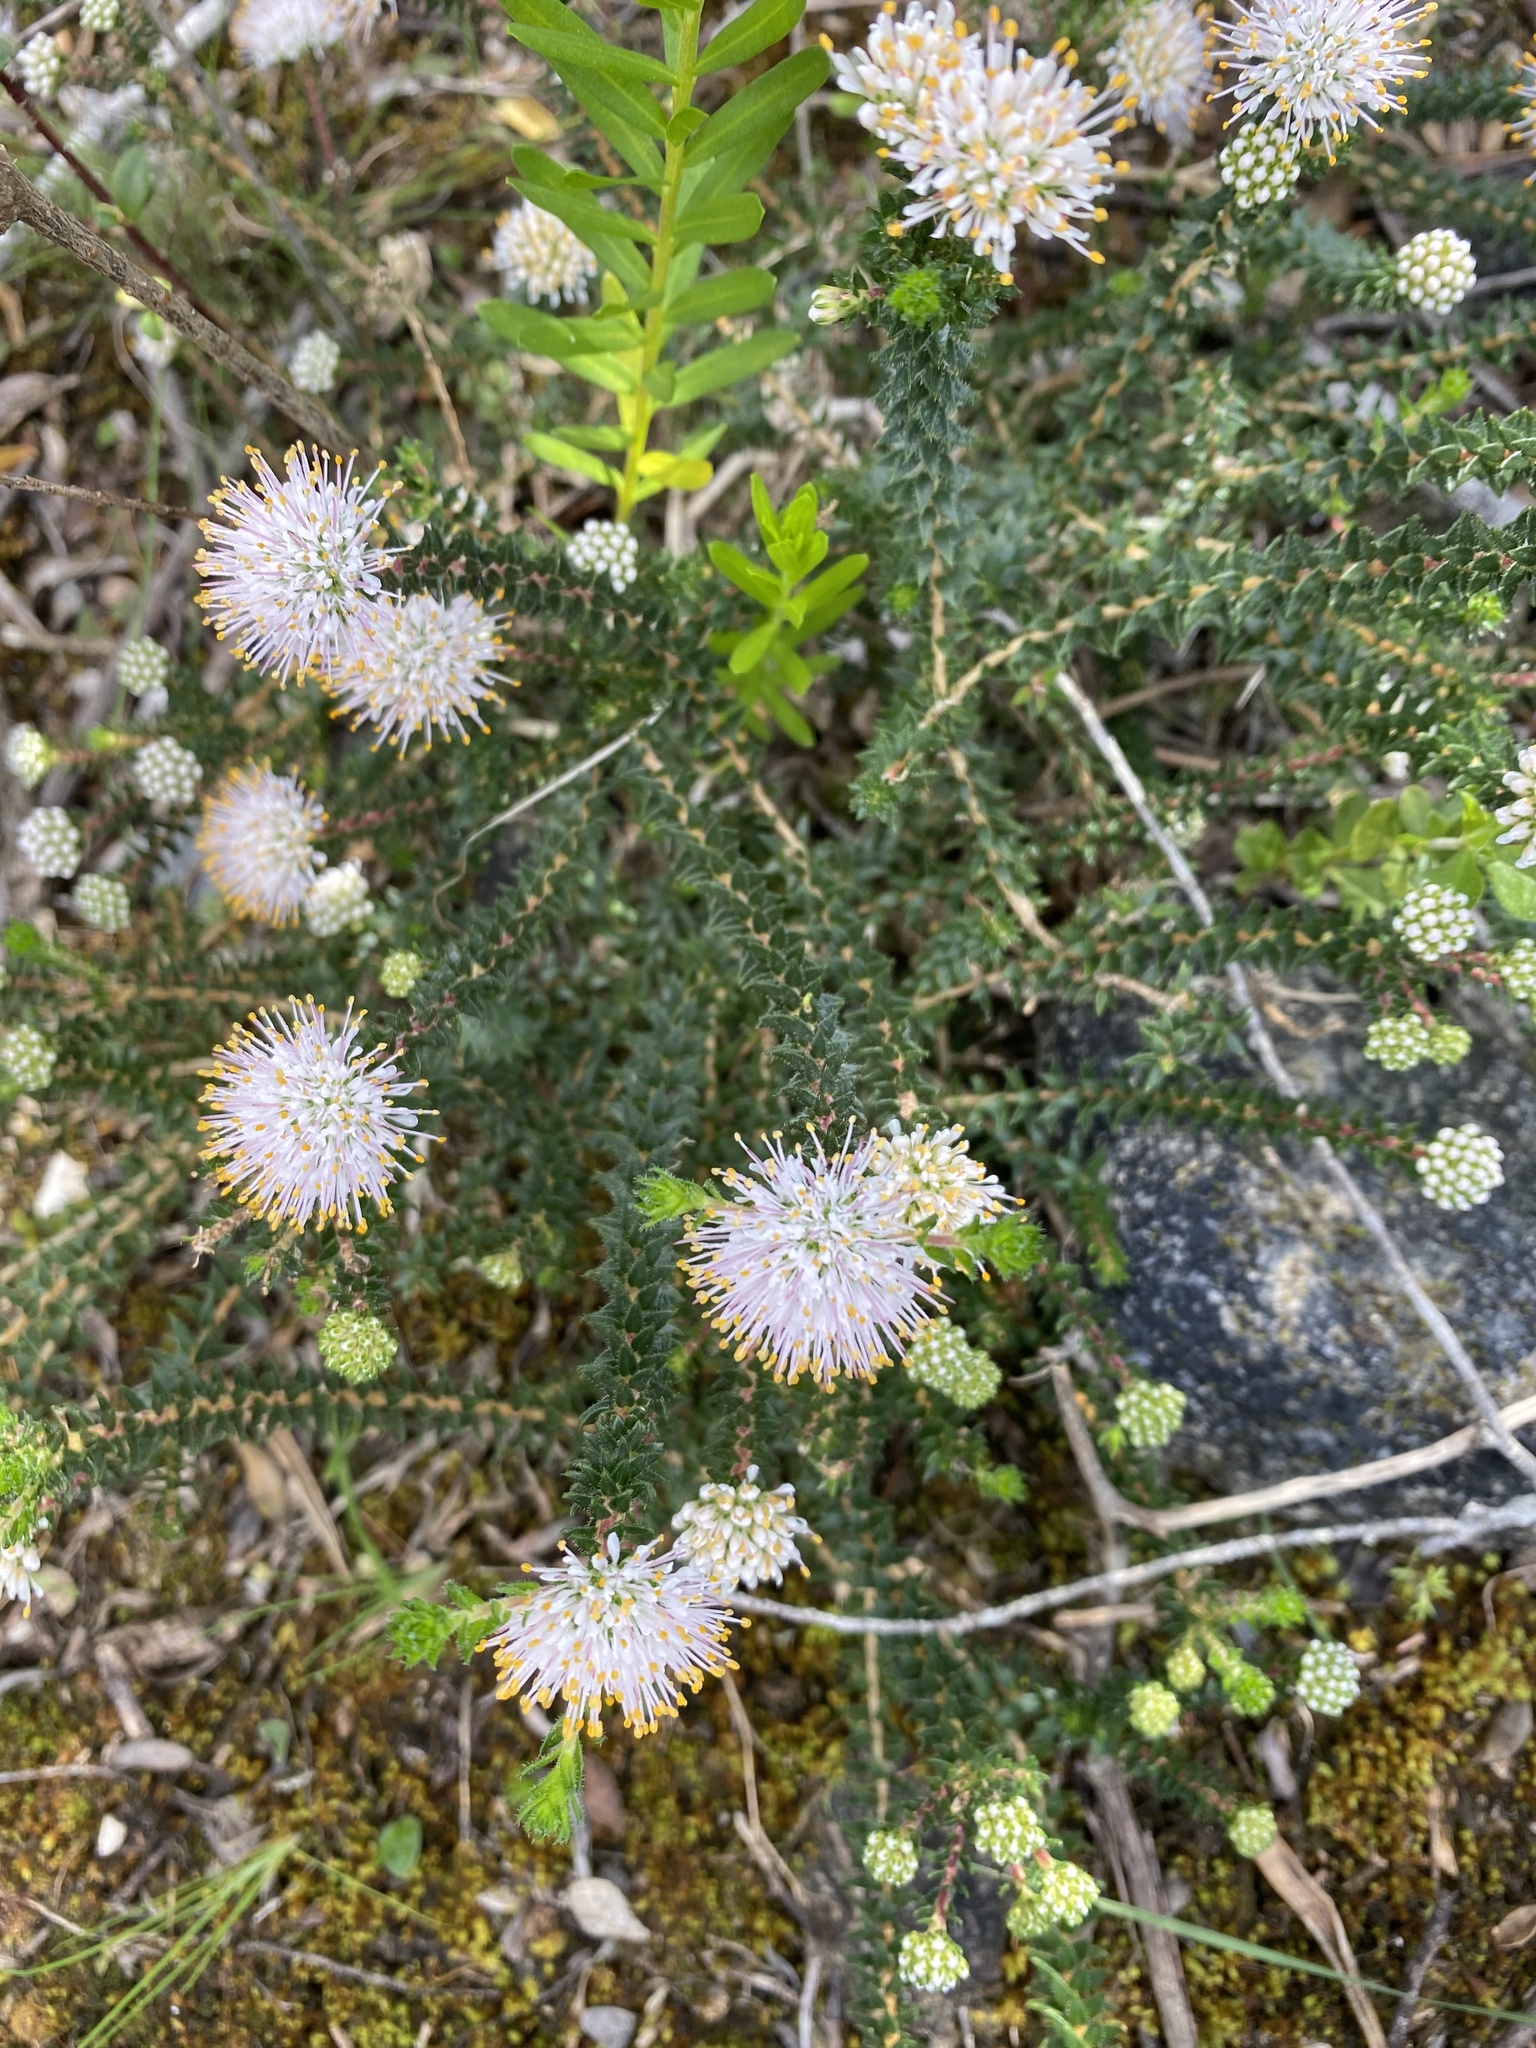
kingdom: Plantae
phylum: Tracheophyta
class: Magnoliopsida
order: Sapindales
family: Rutaceae
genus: Agathosma
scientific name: Agathosma imbricata
